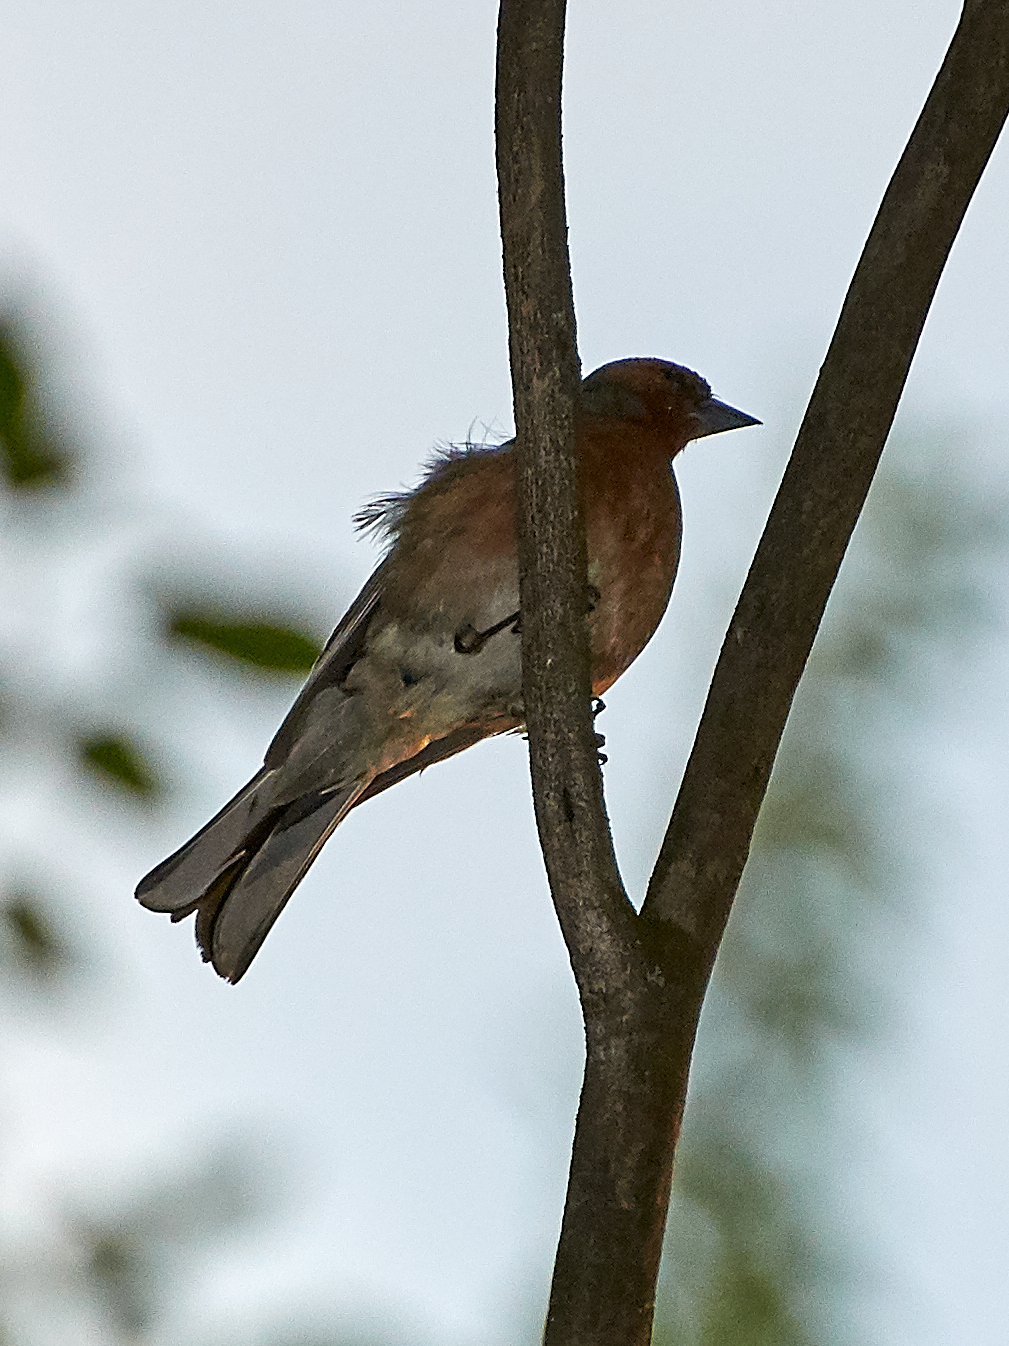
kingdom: Animalia
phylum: Chordata
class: Aves
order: Passeriformes
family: Fringillidae
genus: Fringilla
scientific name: Fringilla coelebs
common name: Common chaffinch
